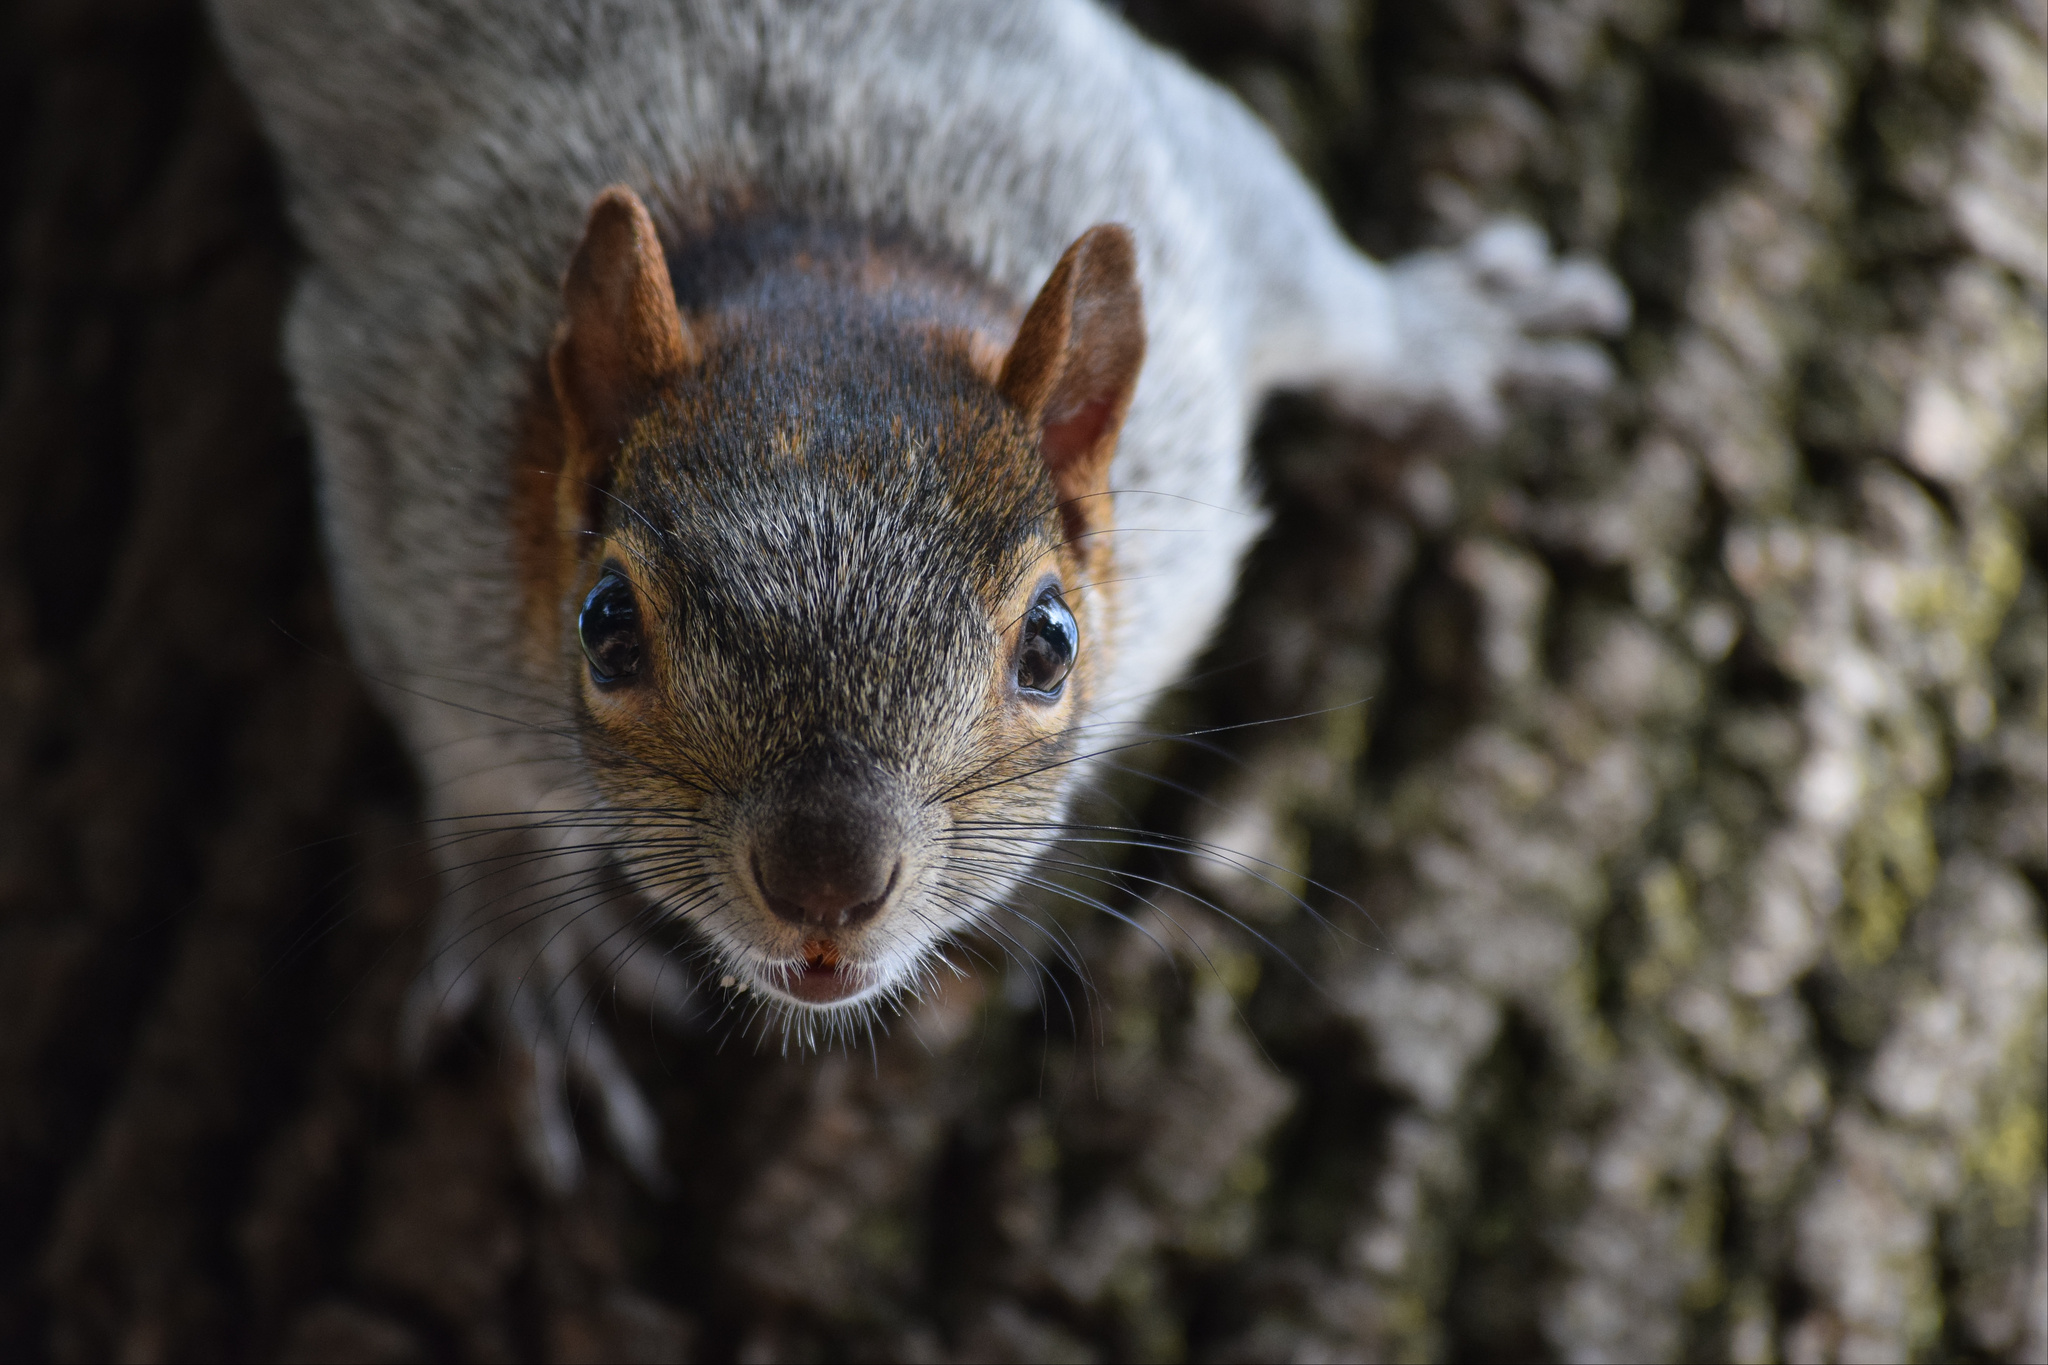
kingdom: Animalia
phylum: Chordata
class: Mammalia
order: Rodentia
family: Sciuridae
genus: Sciurus
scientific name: Sciurus aureogaster
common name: Red-bellied squirrel
